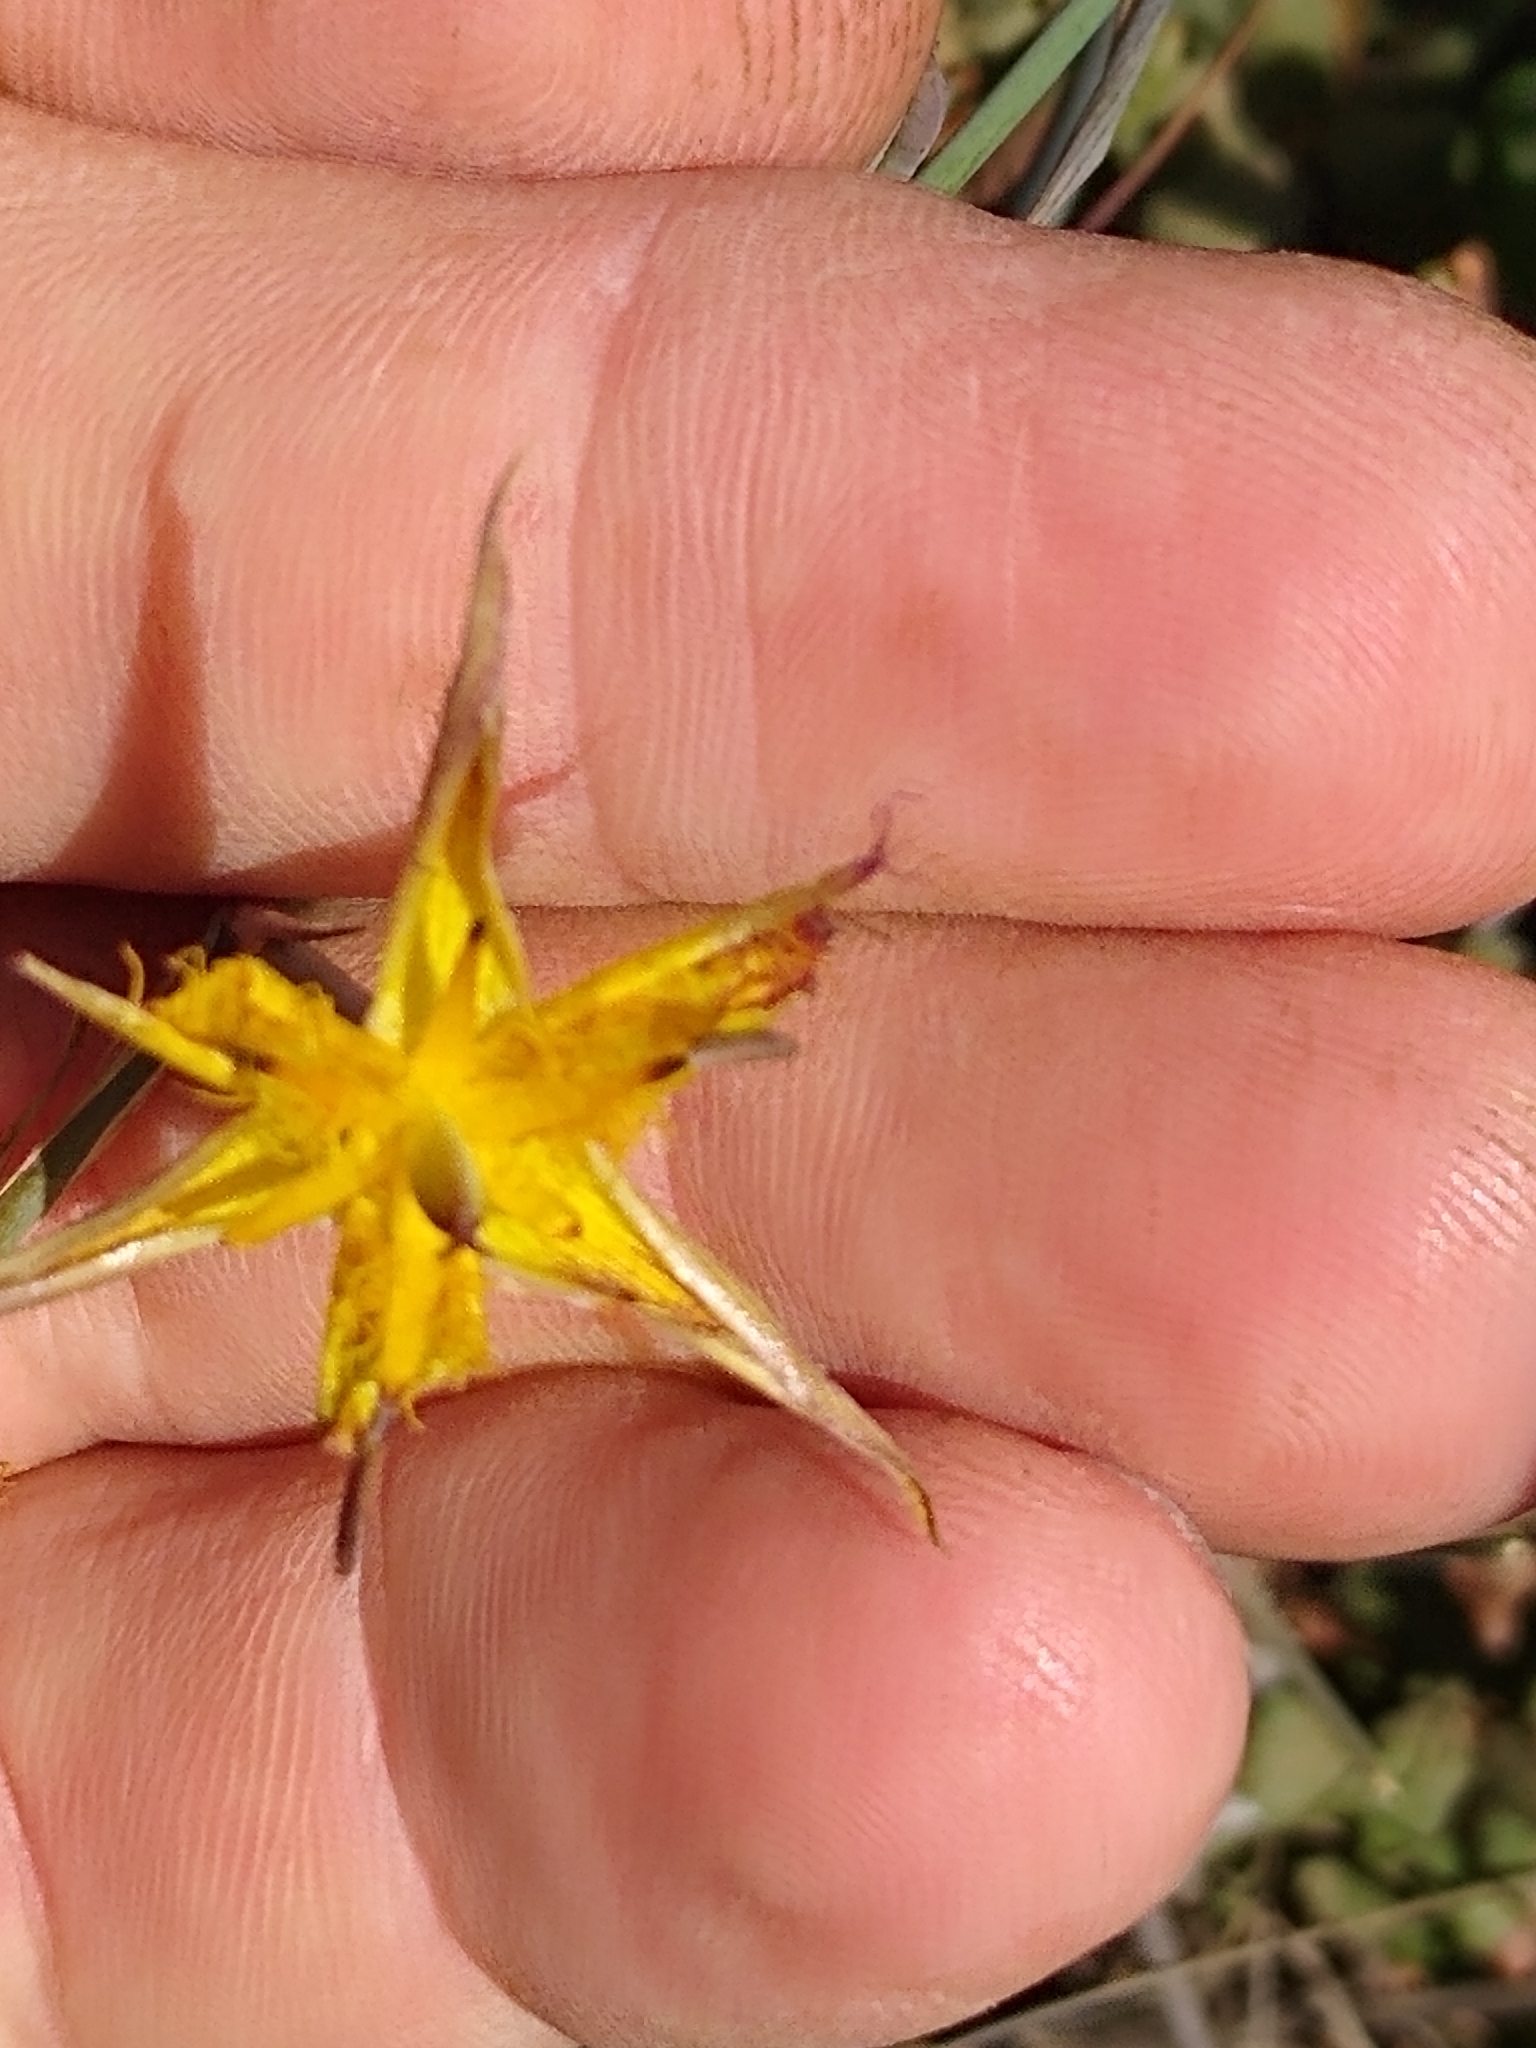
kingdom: Plantae
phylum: Tracheophyta
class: Liliopsida
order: Liliales
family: Liliaceae
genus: Calochortus
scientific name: Calochortus obispoensis
